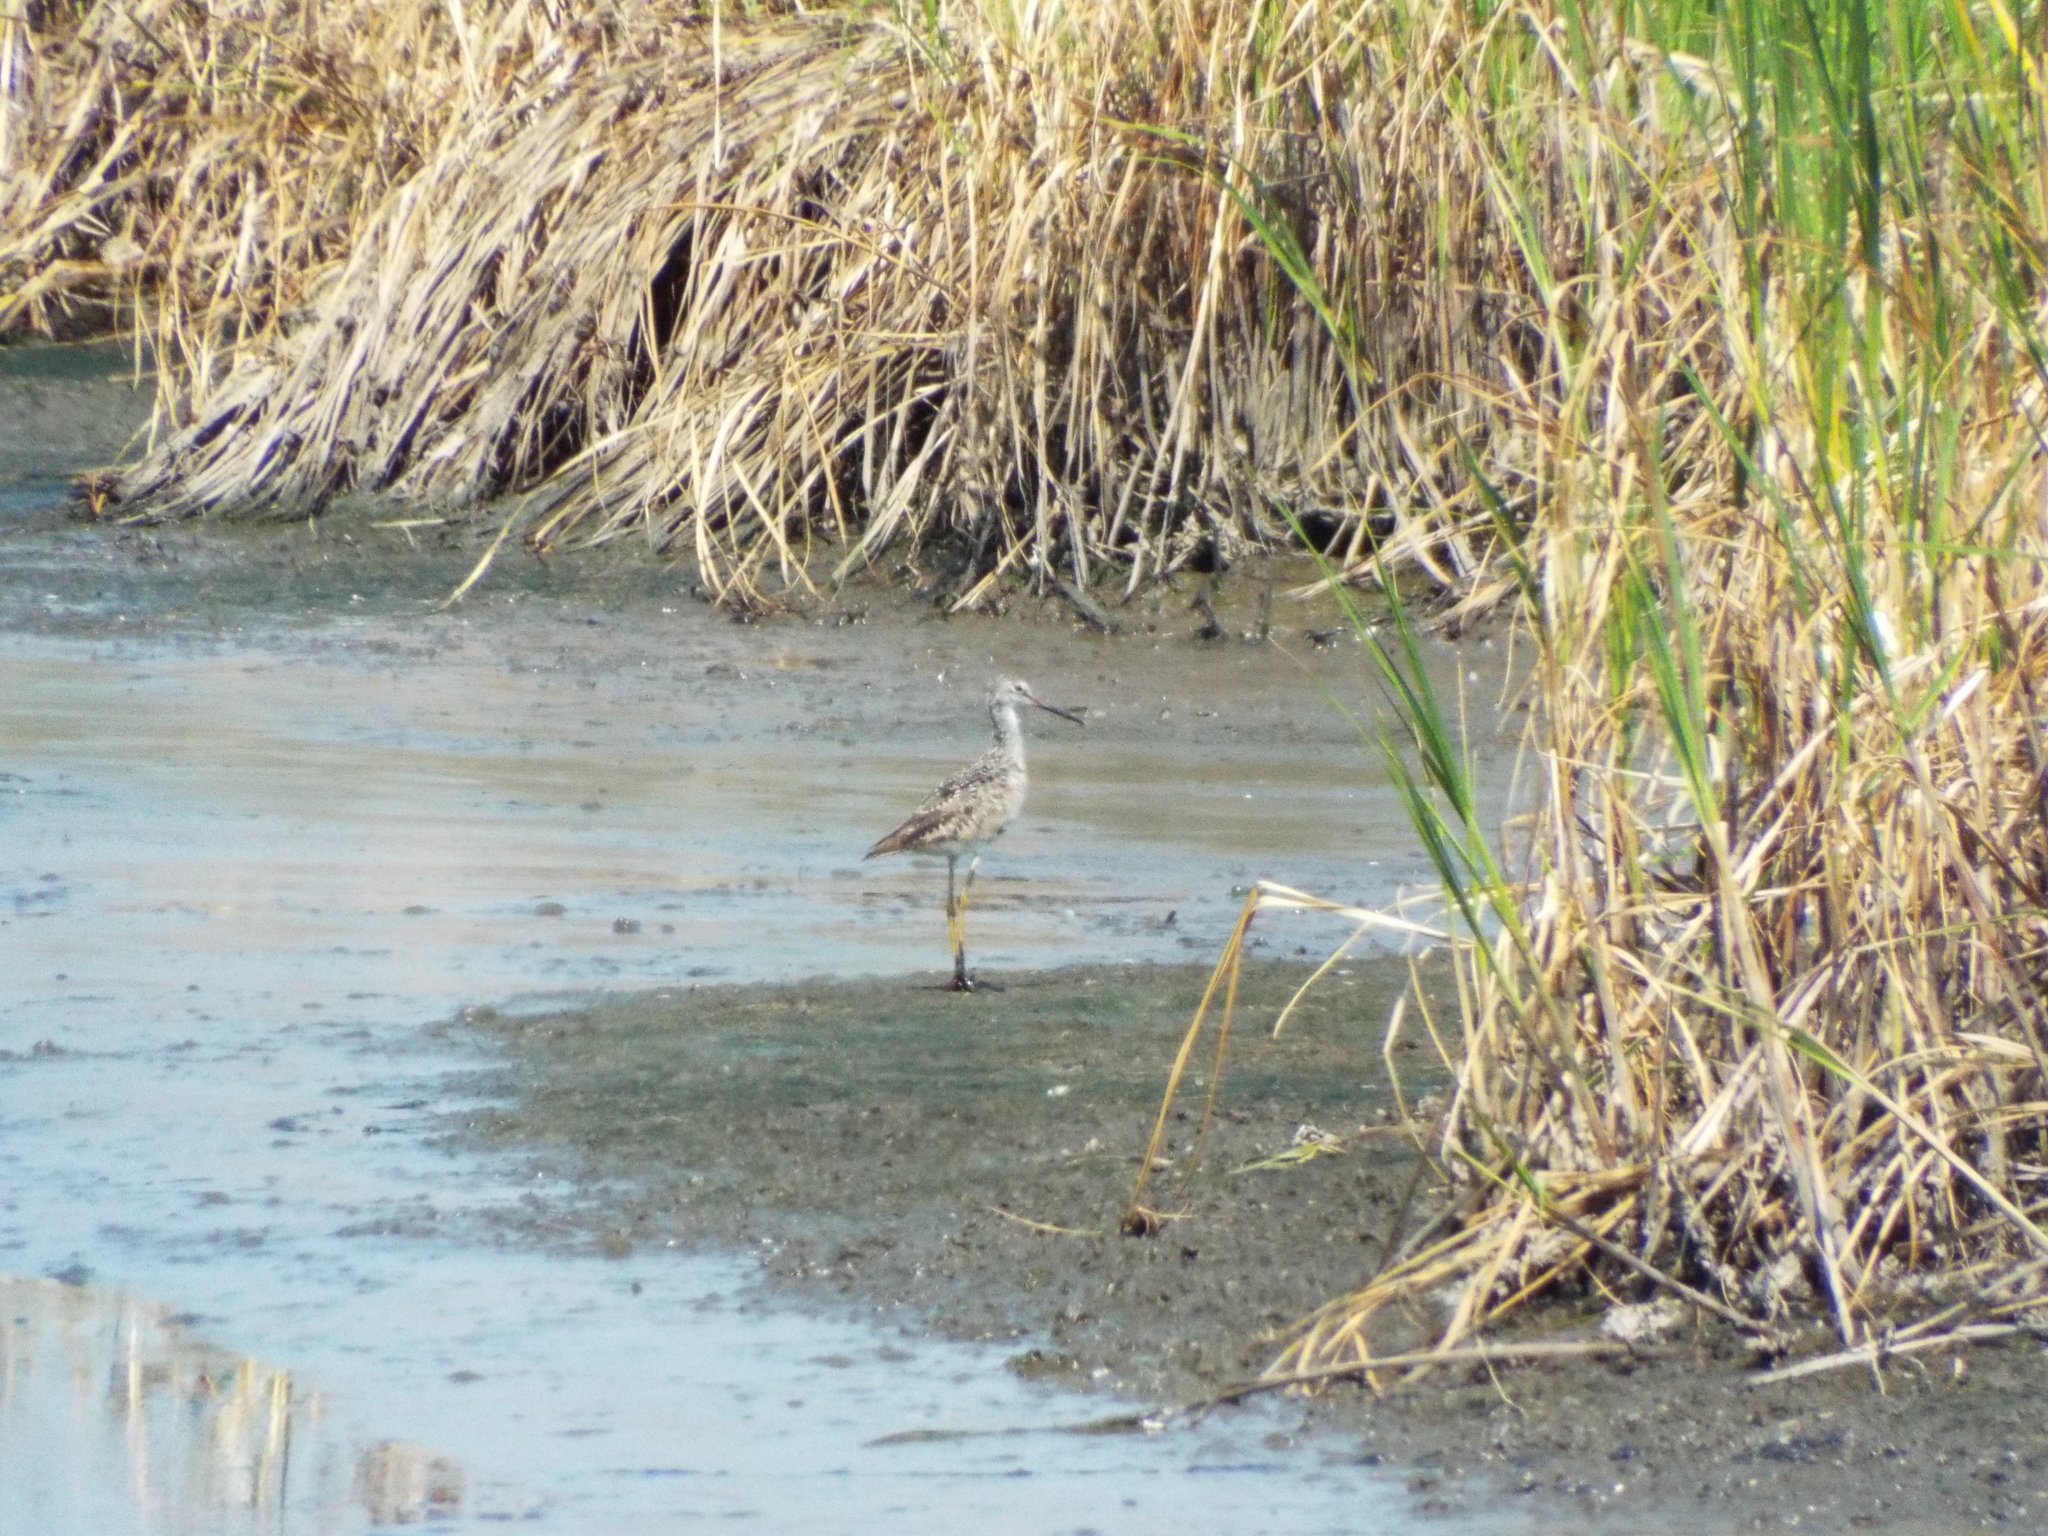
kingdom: Animalia
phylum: Chordata
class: Aves
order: Charadriiformes
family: Scolopacidae
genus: Tringa
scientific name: Tringa melanoleuca
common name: Greater yellowlegs
